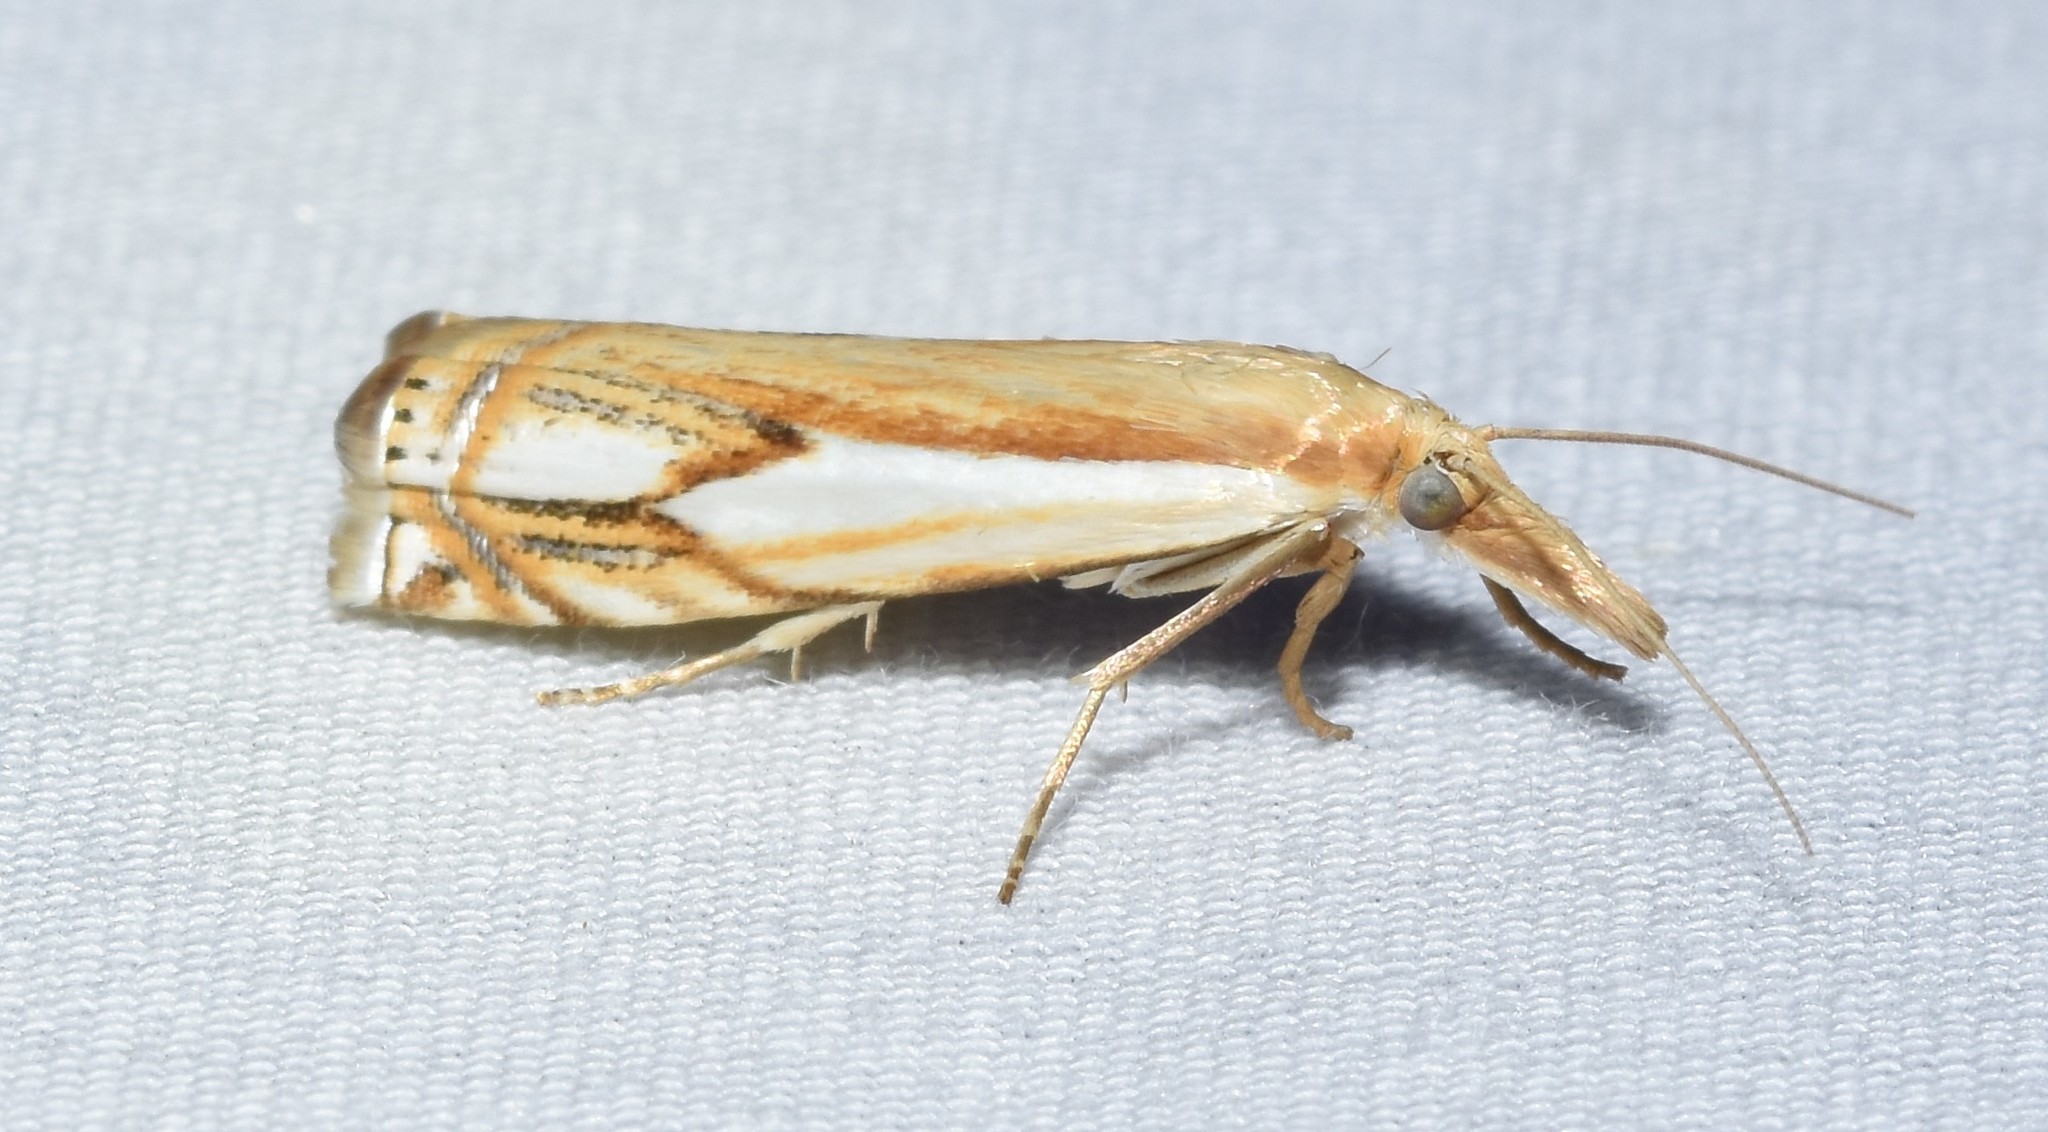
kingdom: Animalia
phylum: Arthropoda
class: Insecta
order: Lepidoptera
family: Crambidae
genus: Crambus
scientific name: Crambus agitatellus
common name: Double-banded grass-veneer
